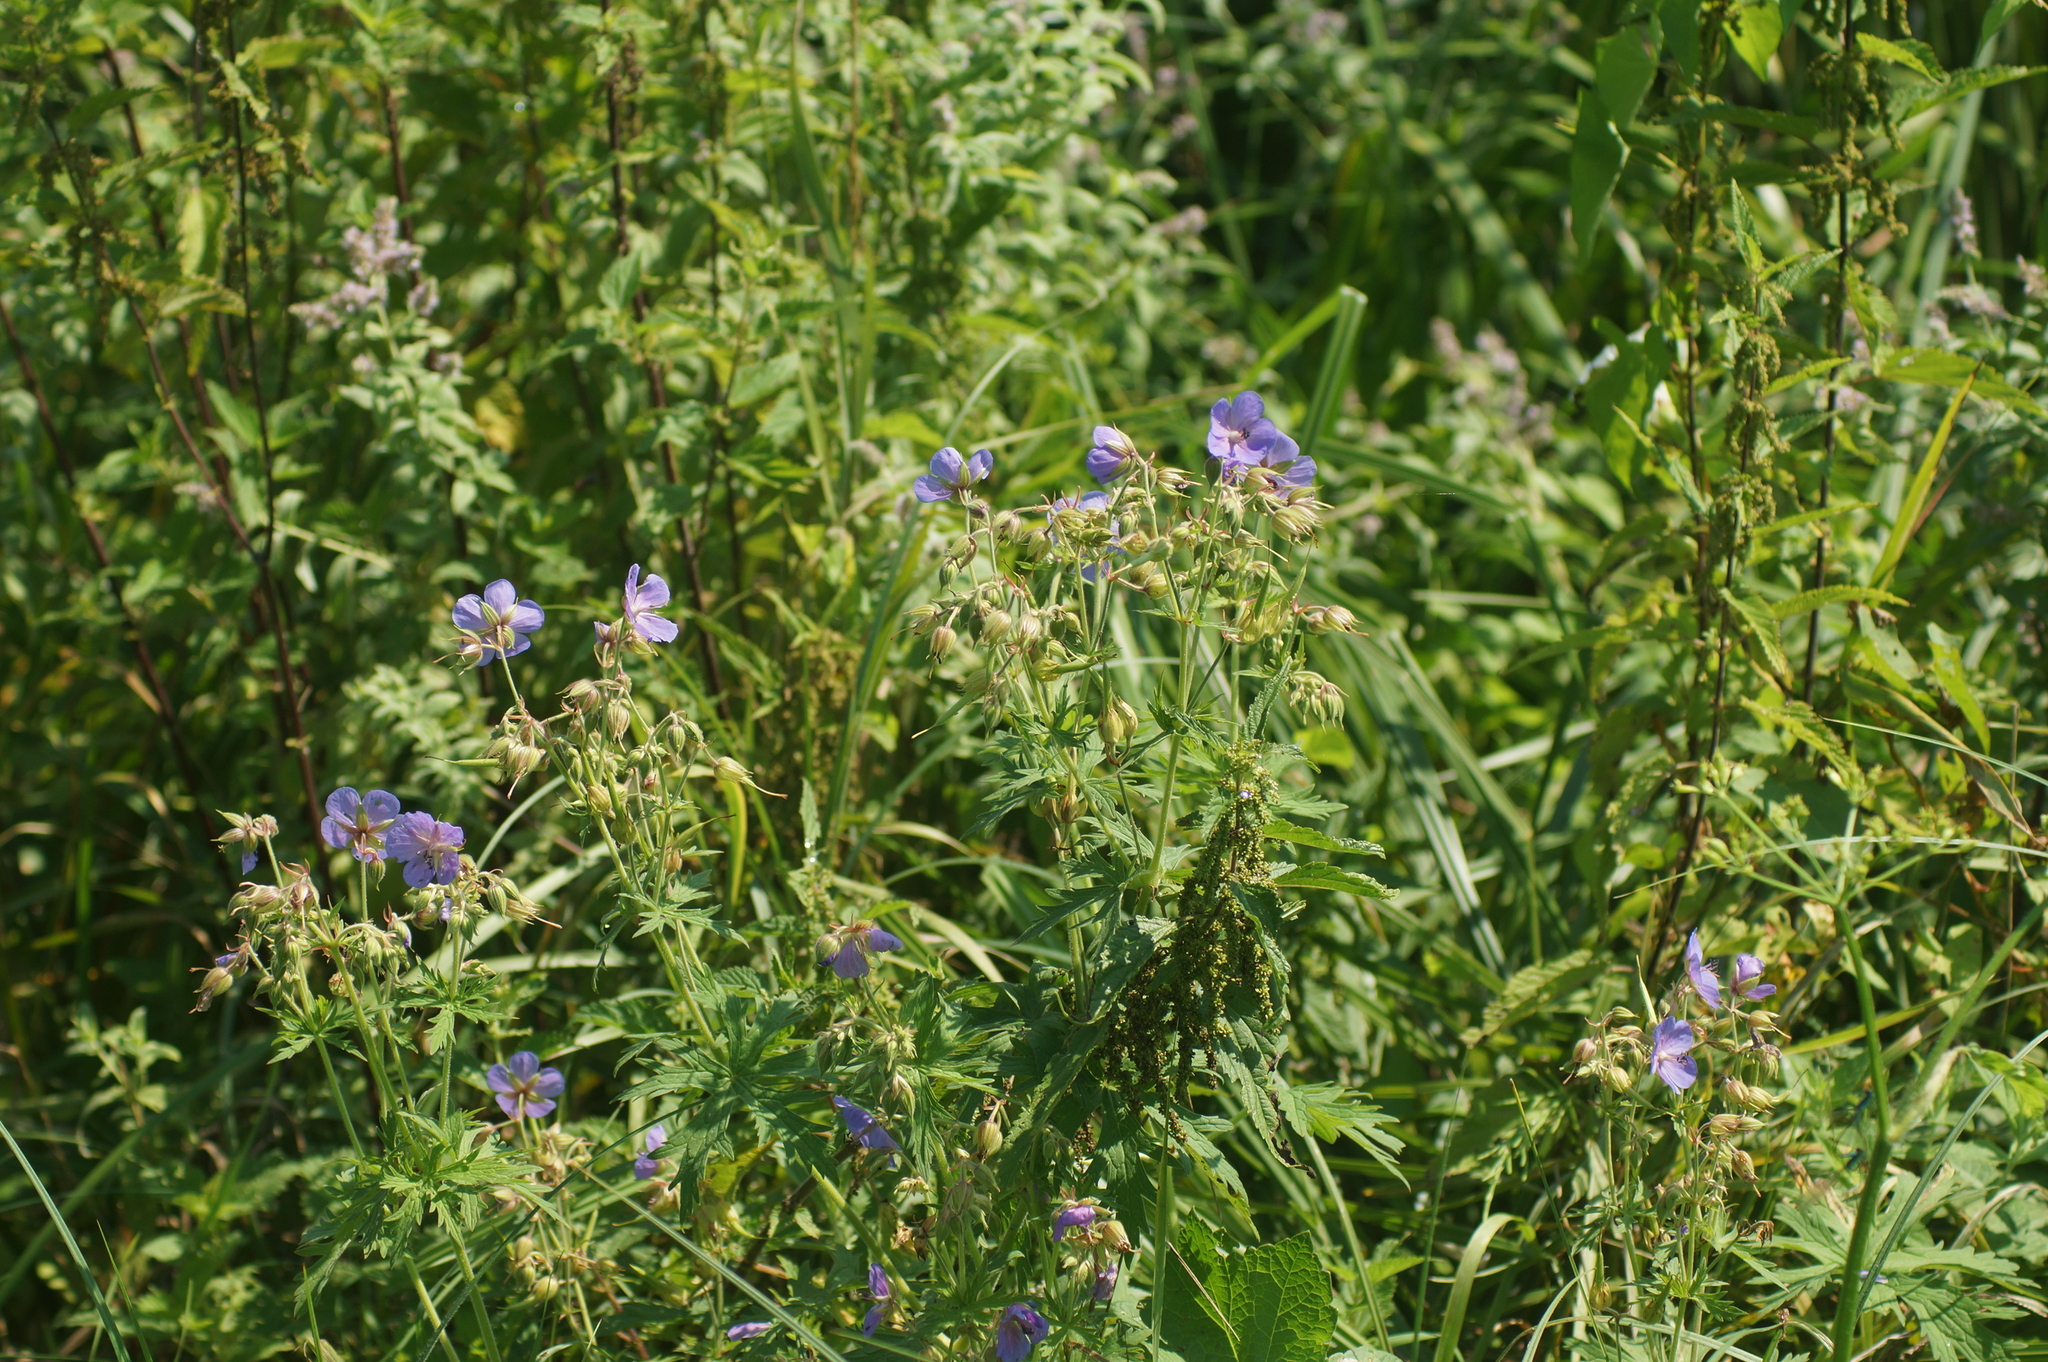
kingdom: Plantae
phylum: Tracheophyta
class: Magnoliopsida
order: Geraniales
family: Geraniaceae
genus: Geranium
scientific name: Geranium pratense
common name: Meadow crane's-bill
